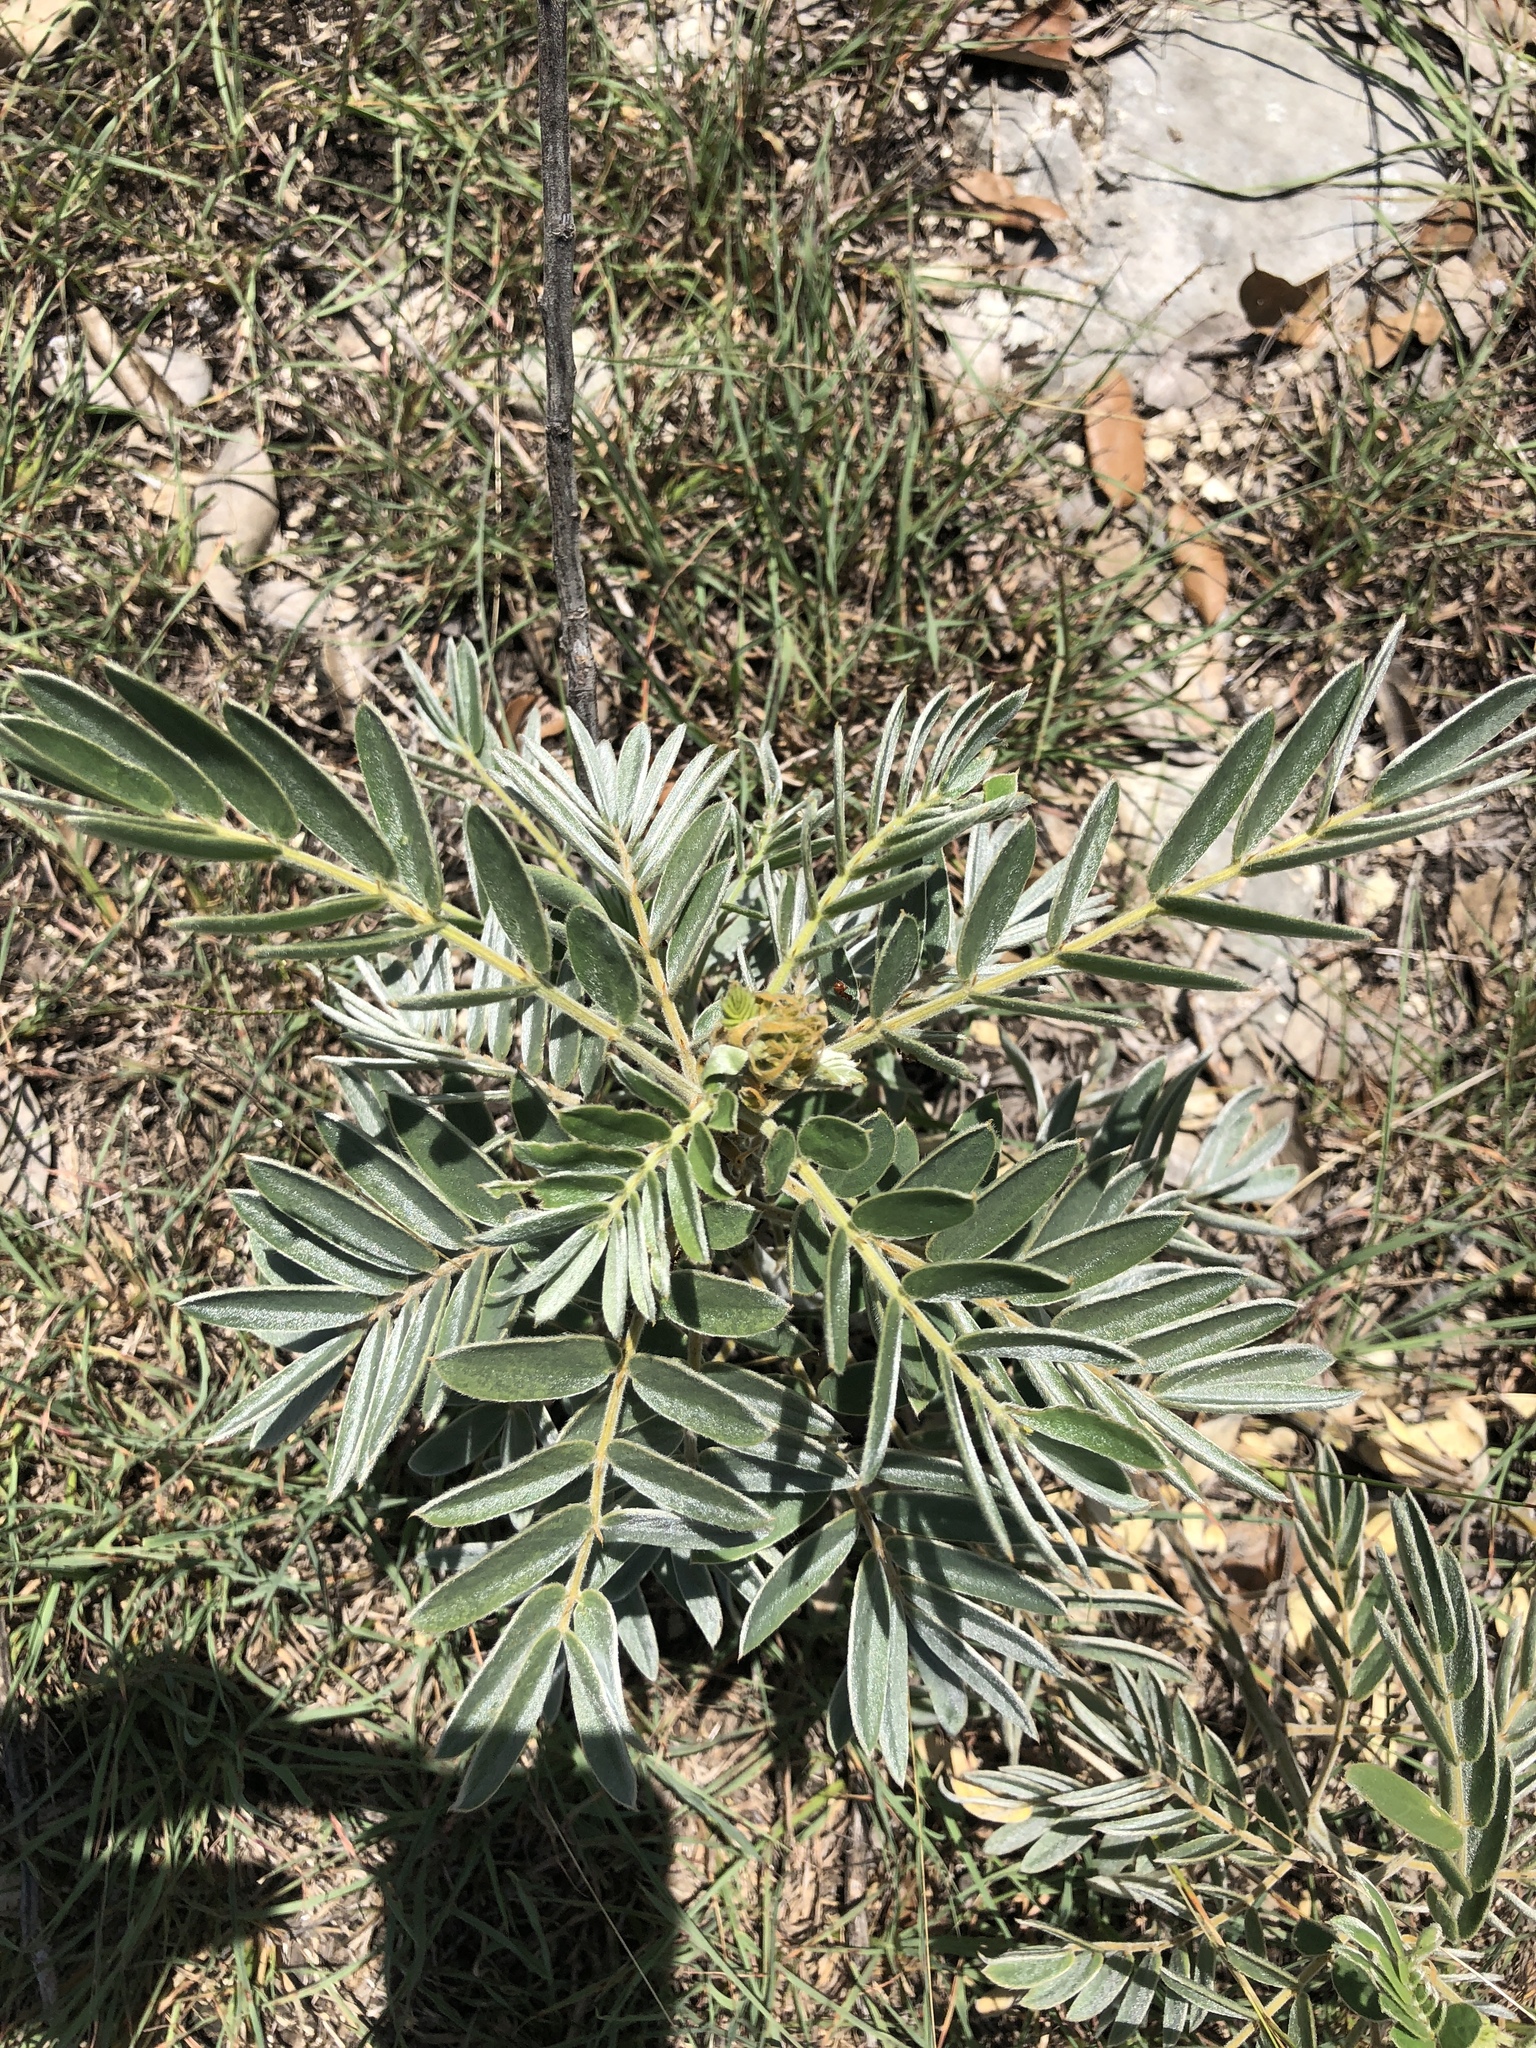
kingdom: Plantae
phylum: Tracheophyta
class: Magnoliopsida
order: Fabales
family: Fabaceae
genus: Senna
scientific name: Senna lindheimeriana
